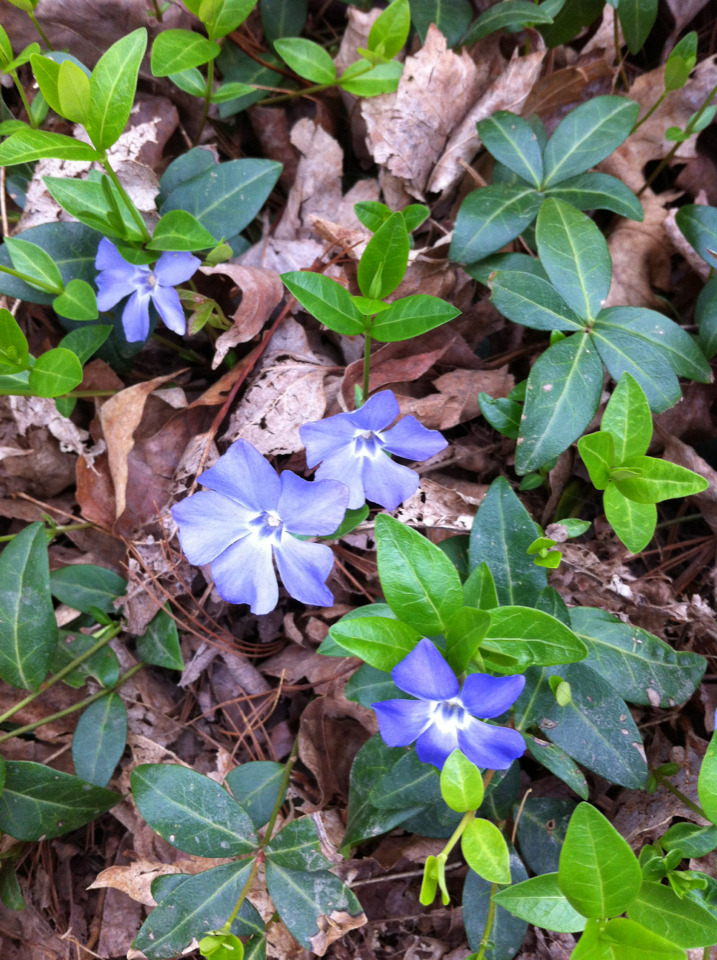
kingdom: Plantae
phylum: Tracheophyta
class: Magnoliopsida
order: Gentianales
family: Apocynaceae
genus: Vinca
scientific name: Vinca minor
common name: Lesser periwinkle
